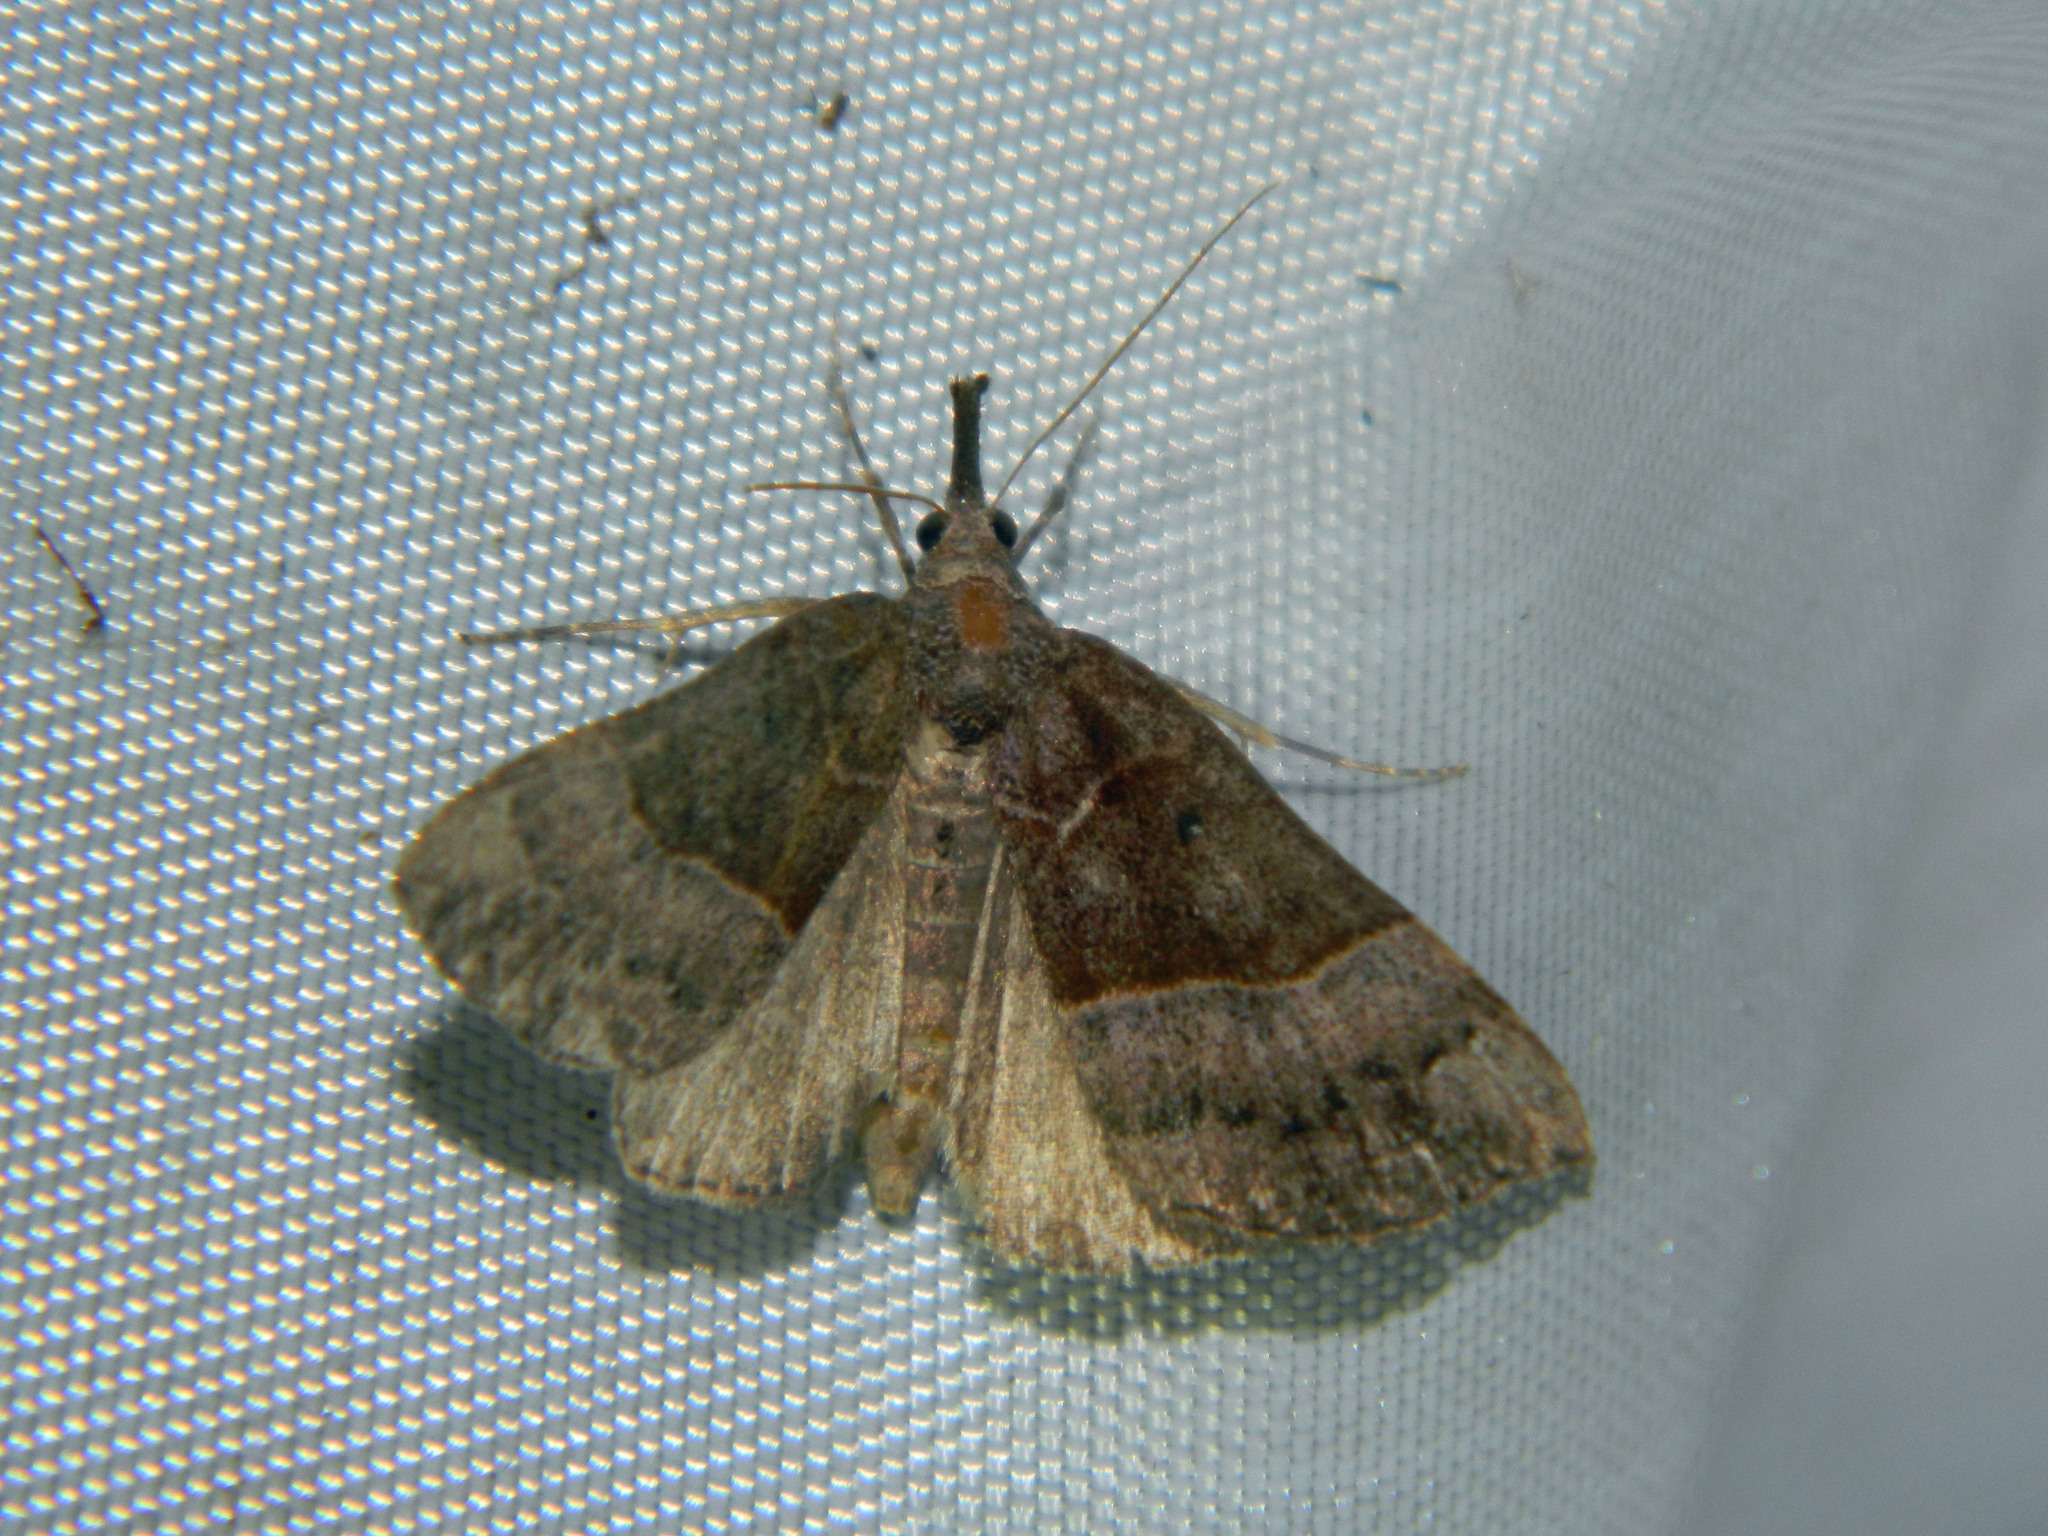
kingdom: Animalia
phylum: Arthropoda
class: Insecta
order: Lepidoptera
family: Erebidae
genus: Hypena
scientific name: Hypena eductalis
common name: Red-footed snout
